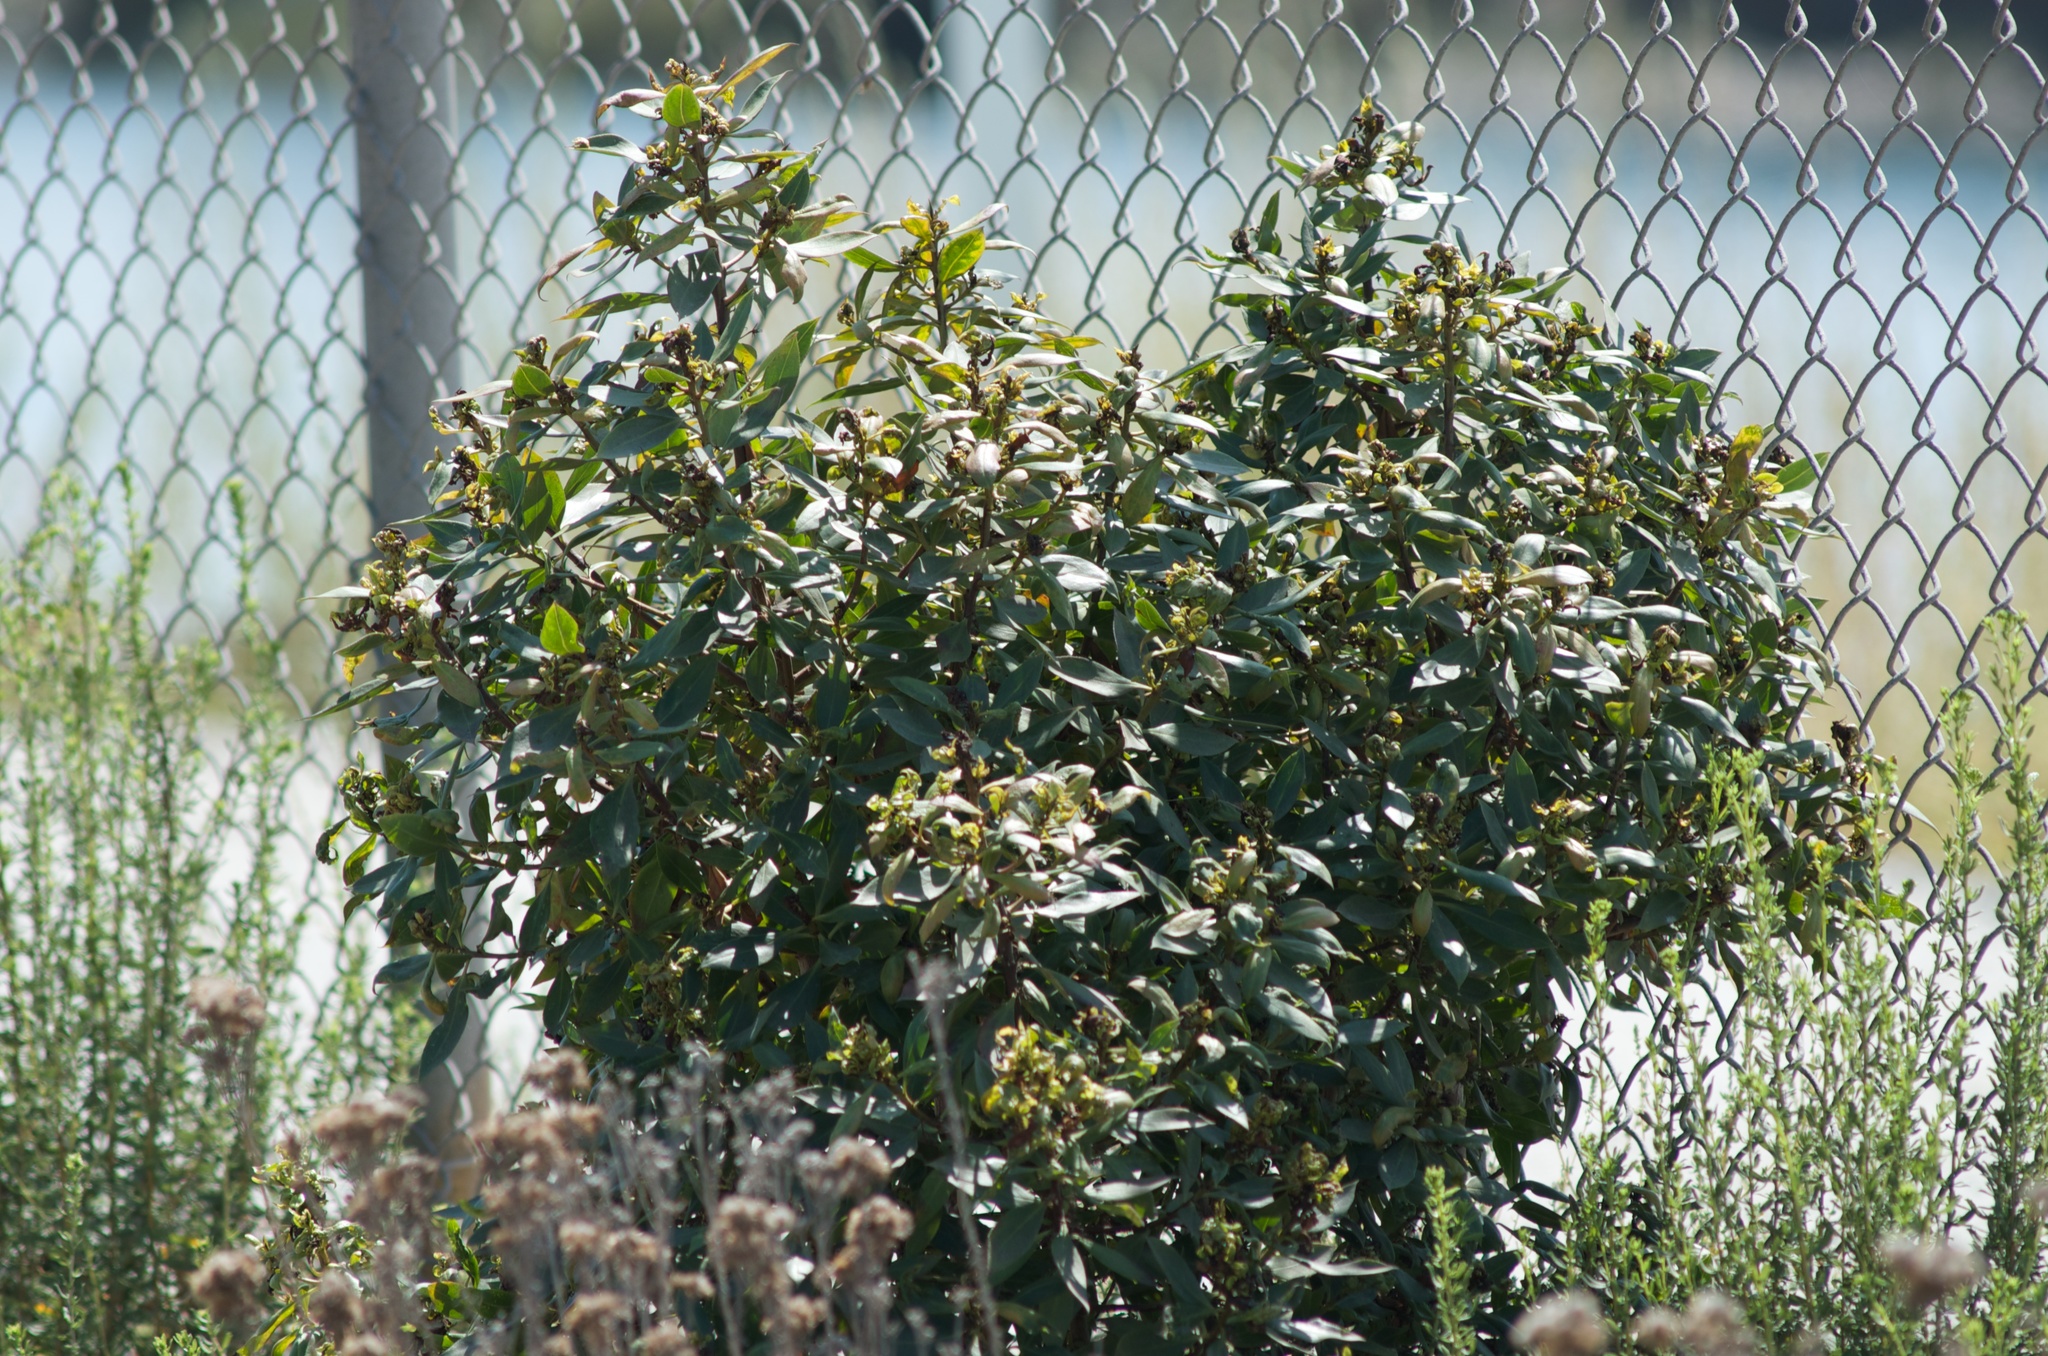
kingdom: Plantae
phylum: Tracheophyta
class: Magnoliopsida
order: Lamiales
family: Scrophulariaceae
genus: Myoporum
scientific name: Myoporum laetum
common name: Ngaio tree
